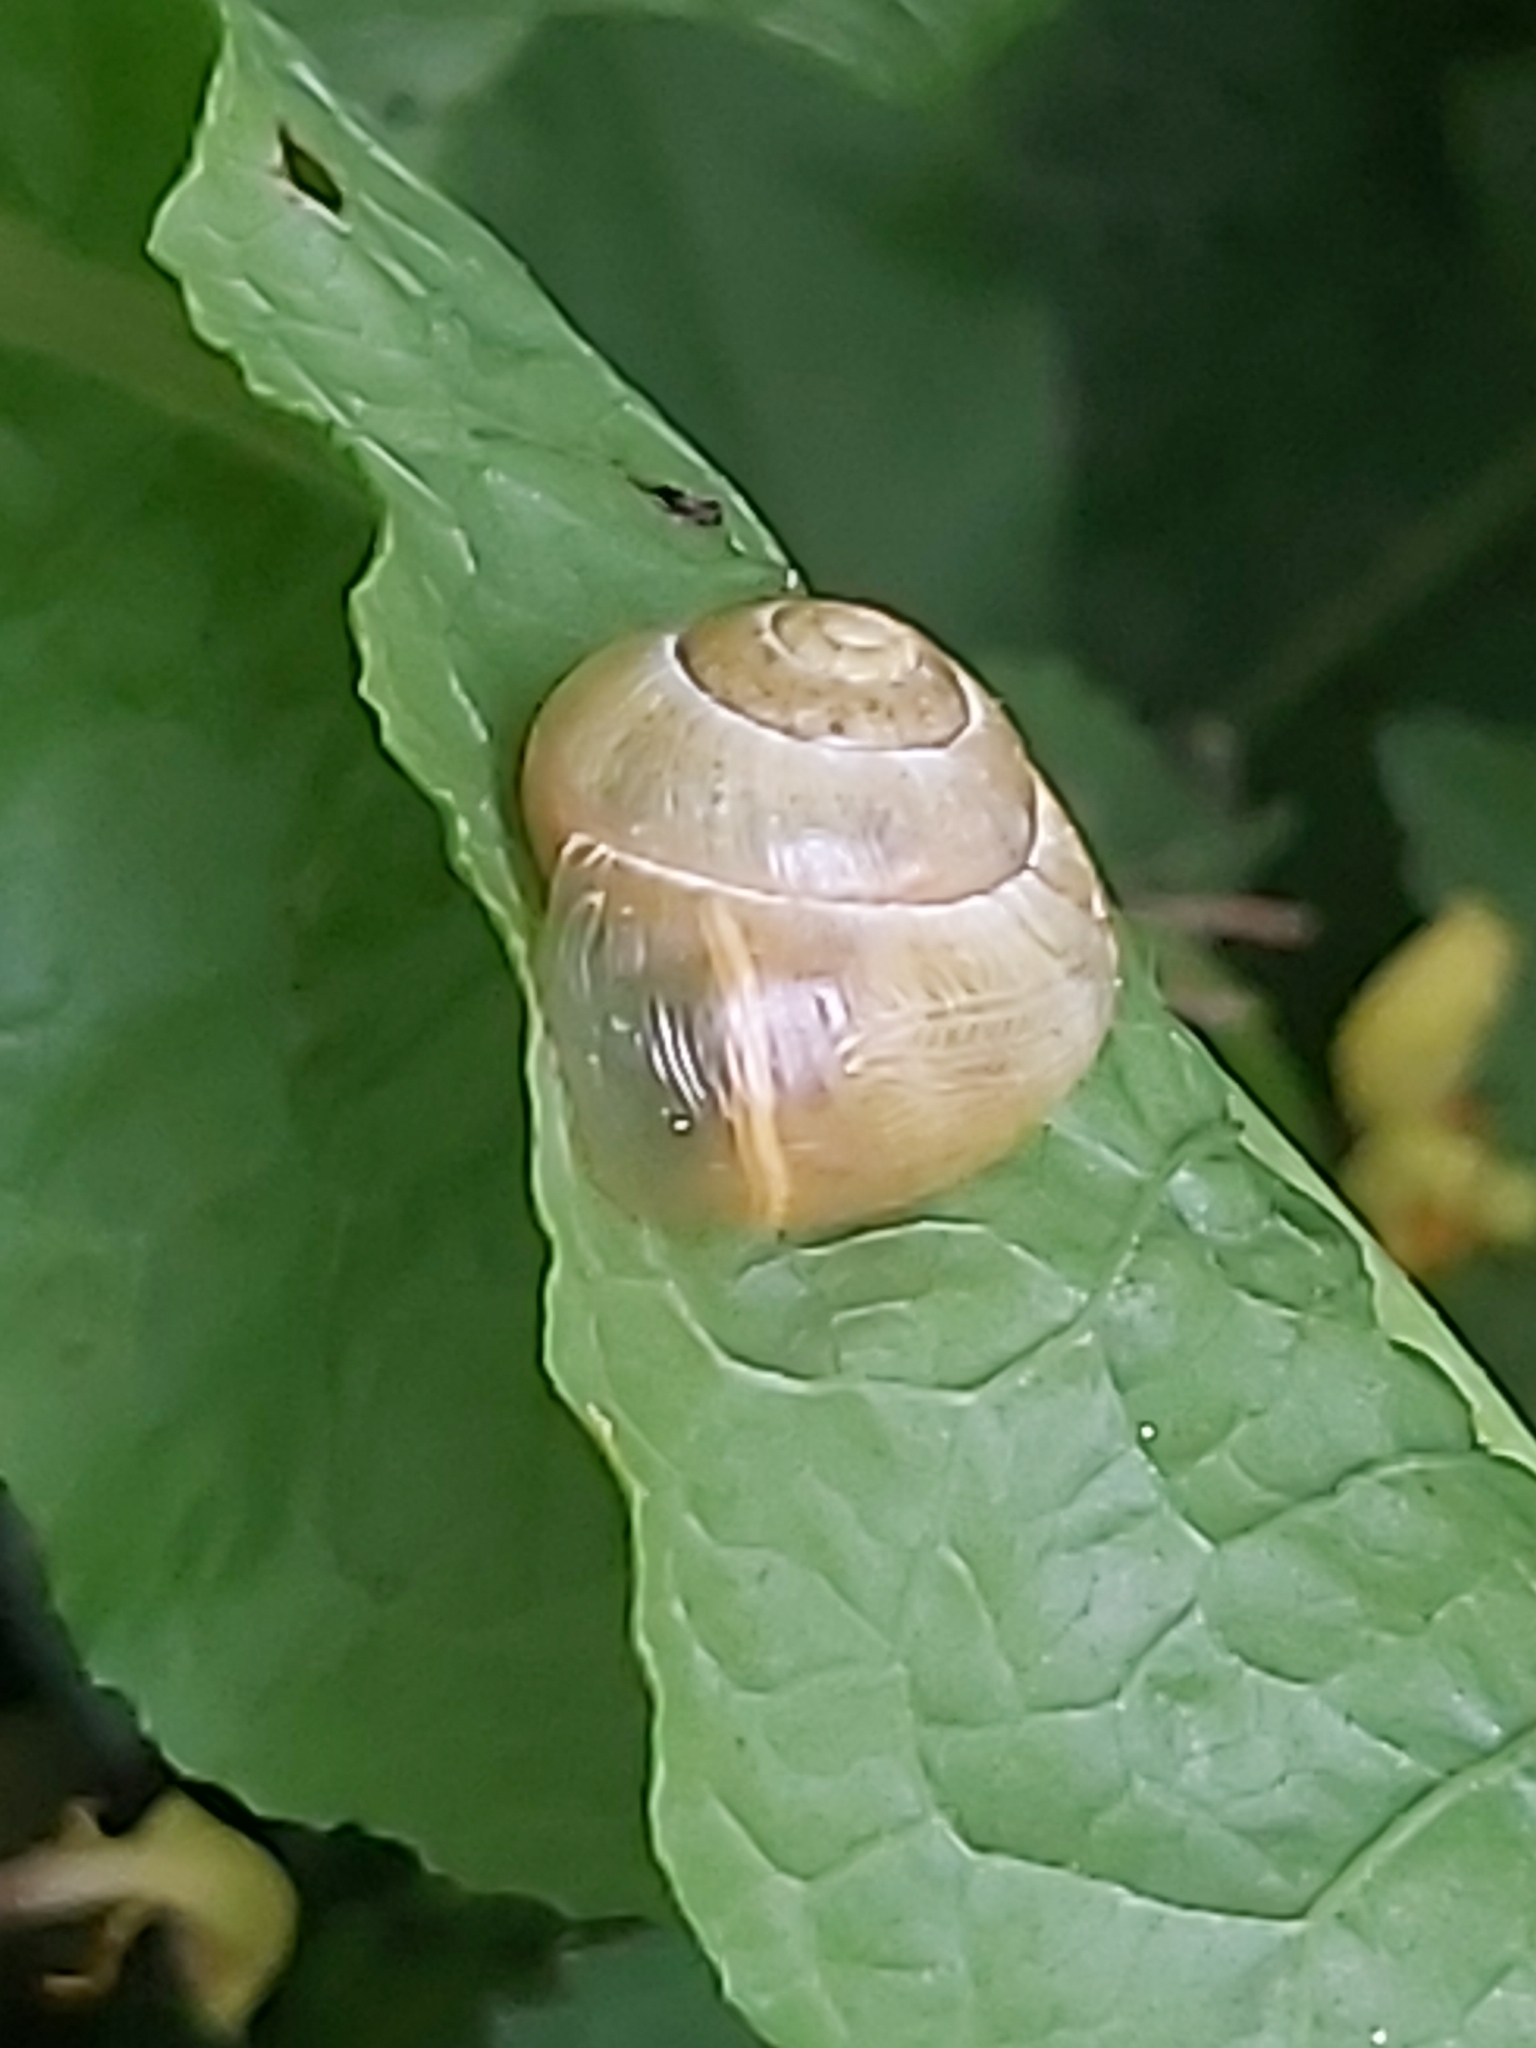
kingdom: Animalia
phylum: Mollusca
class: Gastropoda
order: Stylommatophora
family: Helicidae
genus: Cepaea
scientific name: Cepaea
